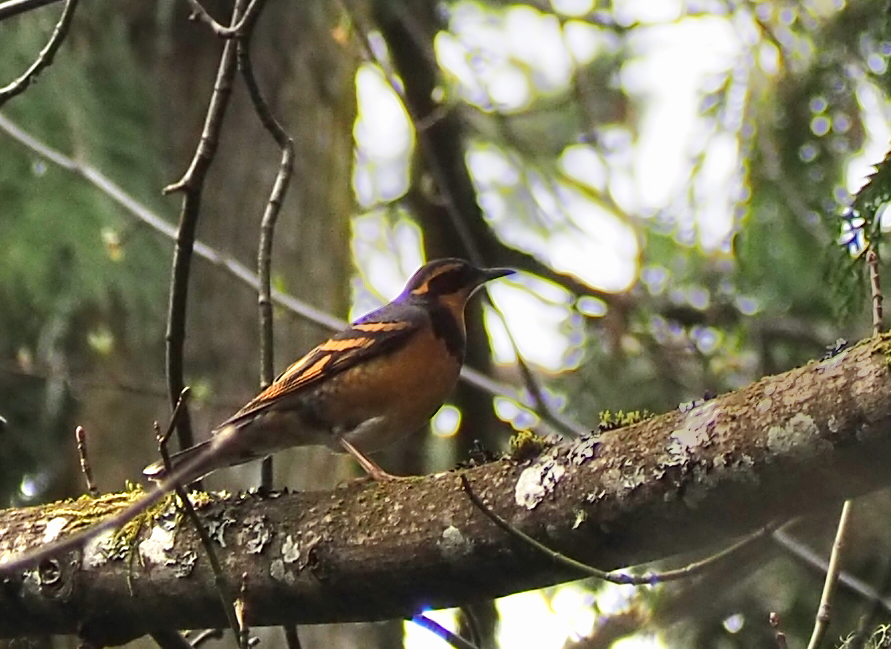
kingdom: Animalia
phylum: Chordata
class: Aves
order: Passeriformes
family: Turdidae
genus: Ixoreus
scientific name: Ixoreus naevius
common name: Varied thrush
